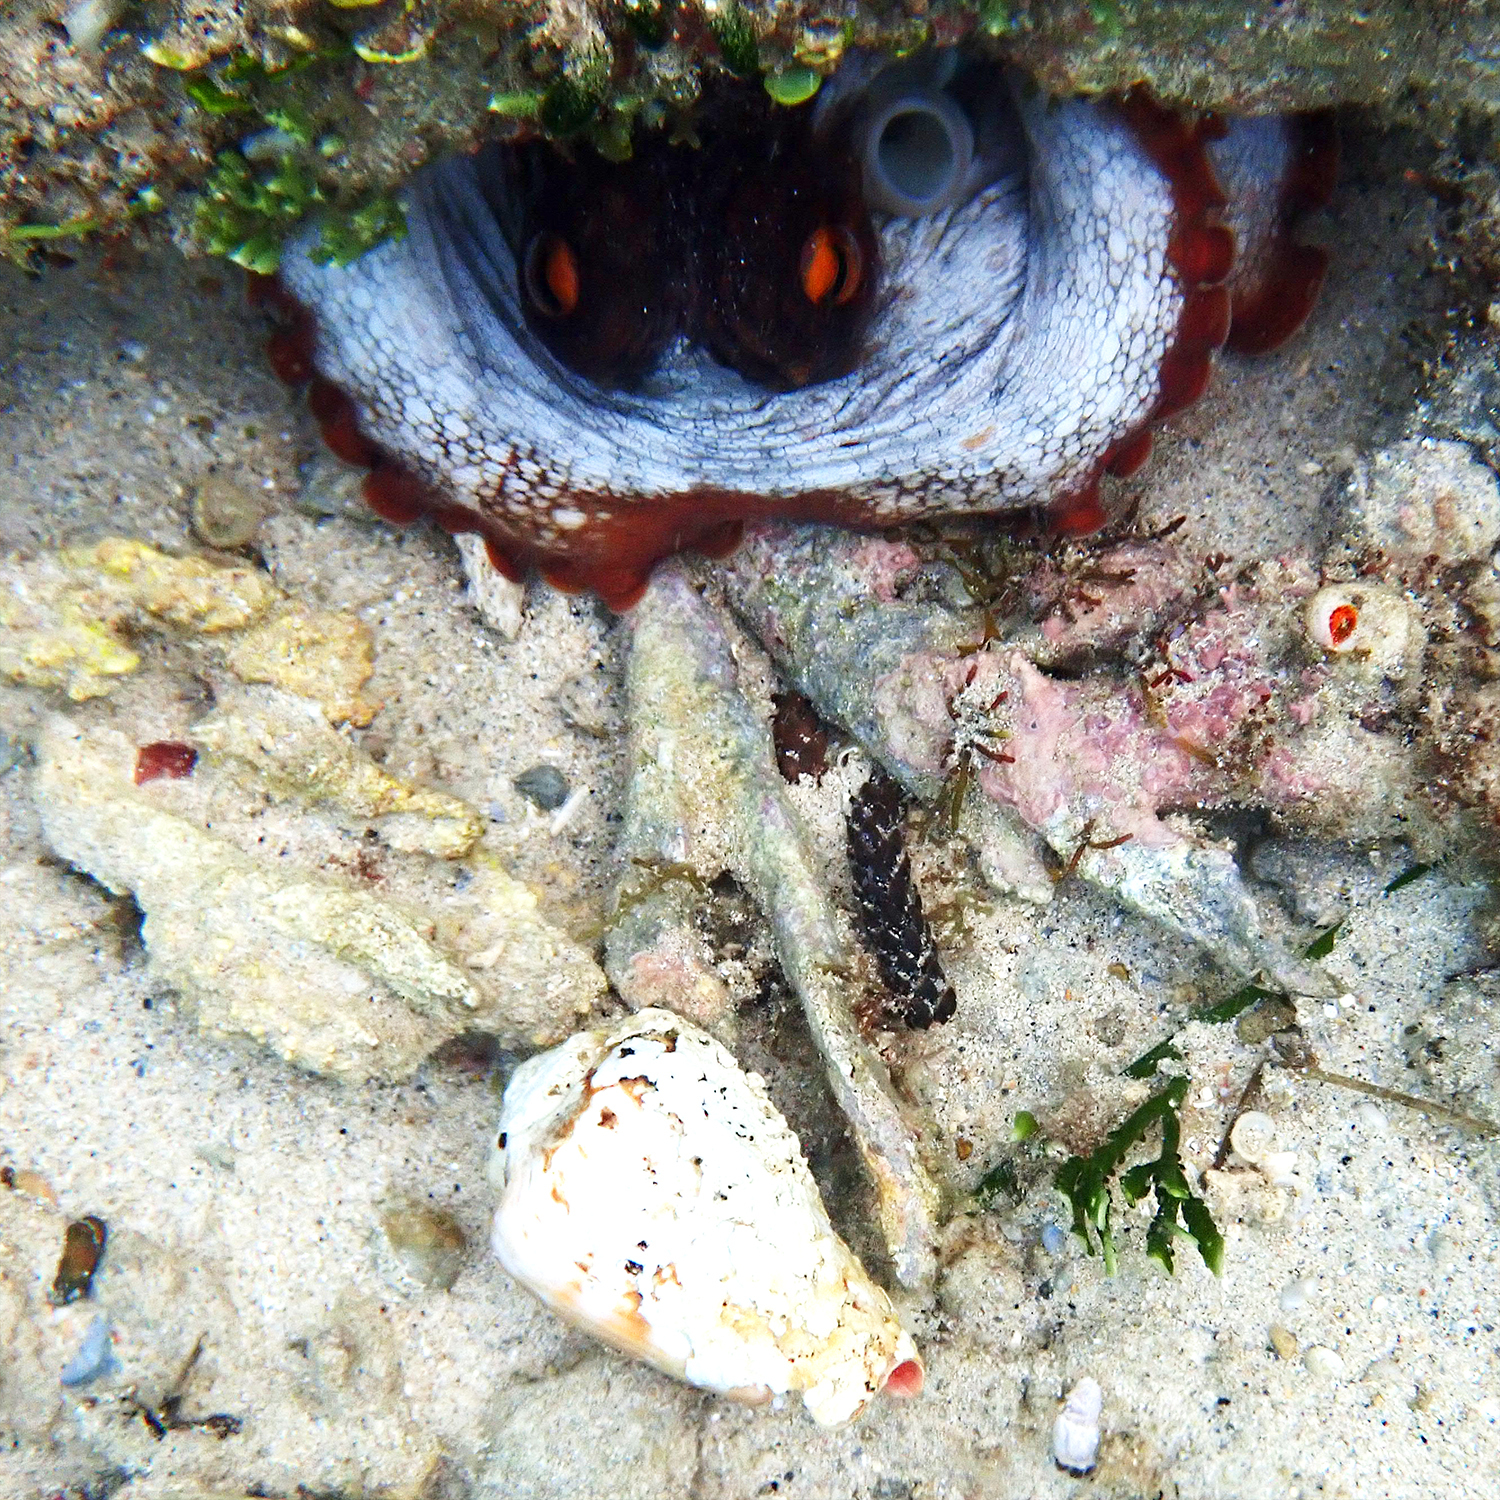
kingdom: Animalia
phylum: Mollusca
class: Cephalopoda
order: Octopoda
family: Octopodidae
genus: Octopus
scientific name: Octopus tetricus
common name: Sydney octopus
